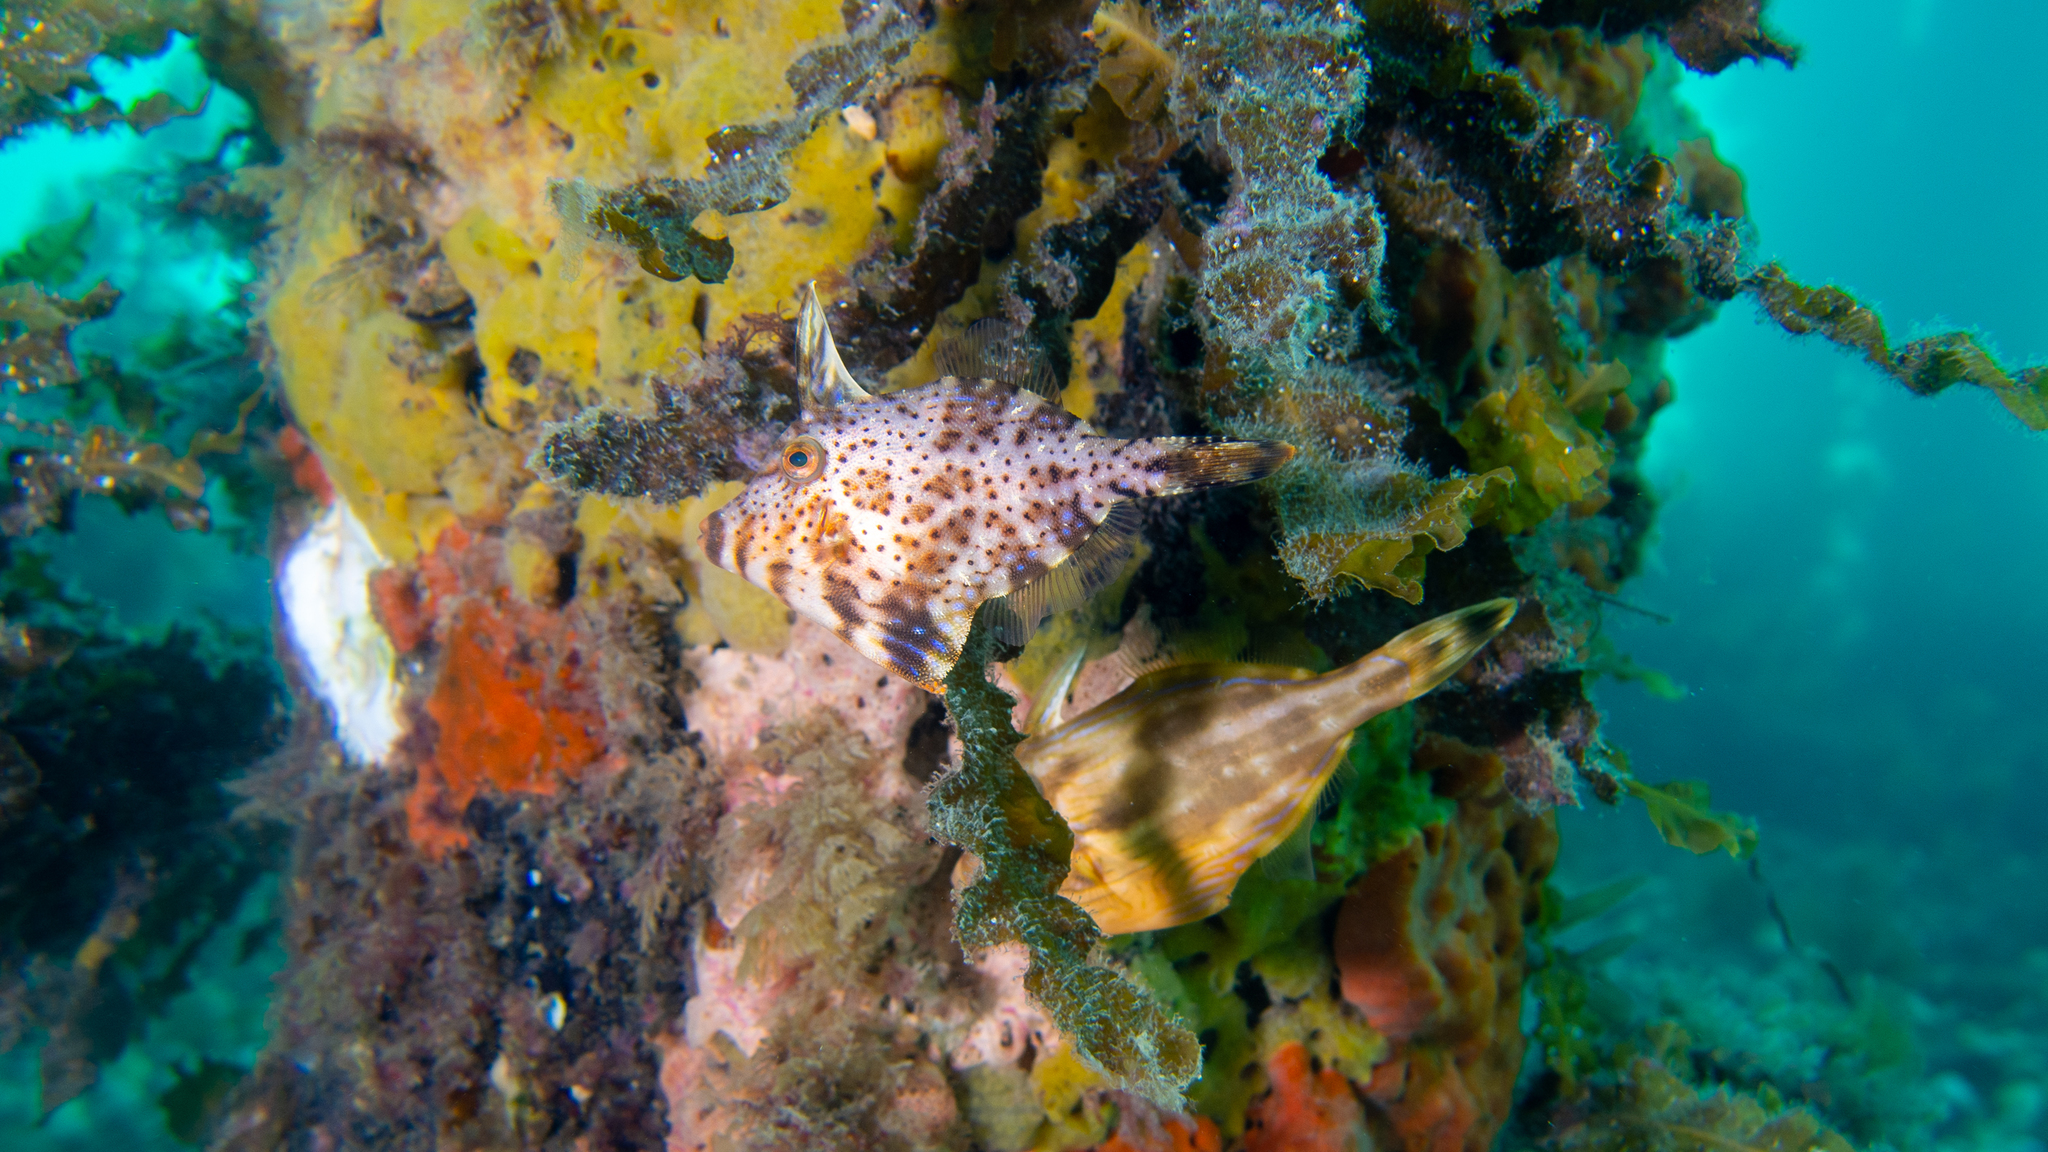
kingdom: Animalia
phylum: Chordata
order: Tetraodontiformes
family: Monacanthidae
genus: Scobinichthys
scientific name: Scobinichthys granulatus
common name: Rough leatherjacket
